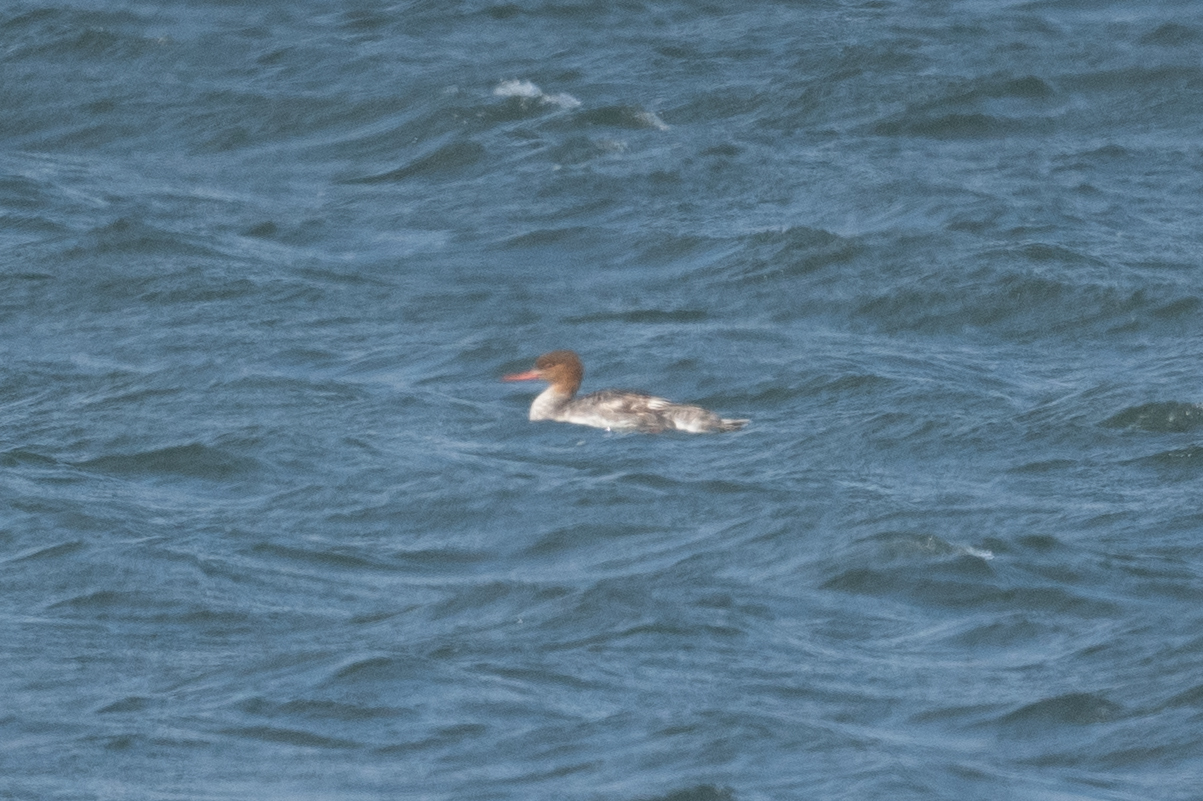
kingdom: Animalia
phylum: Chordata
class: Aves
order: Anseriformes
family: Anatidae
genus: Mergus
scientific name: Mergus serrator
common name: Red-breasted merganser
